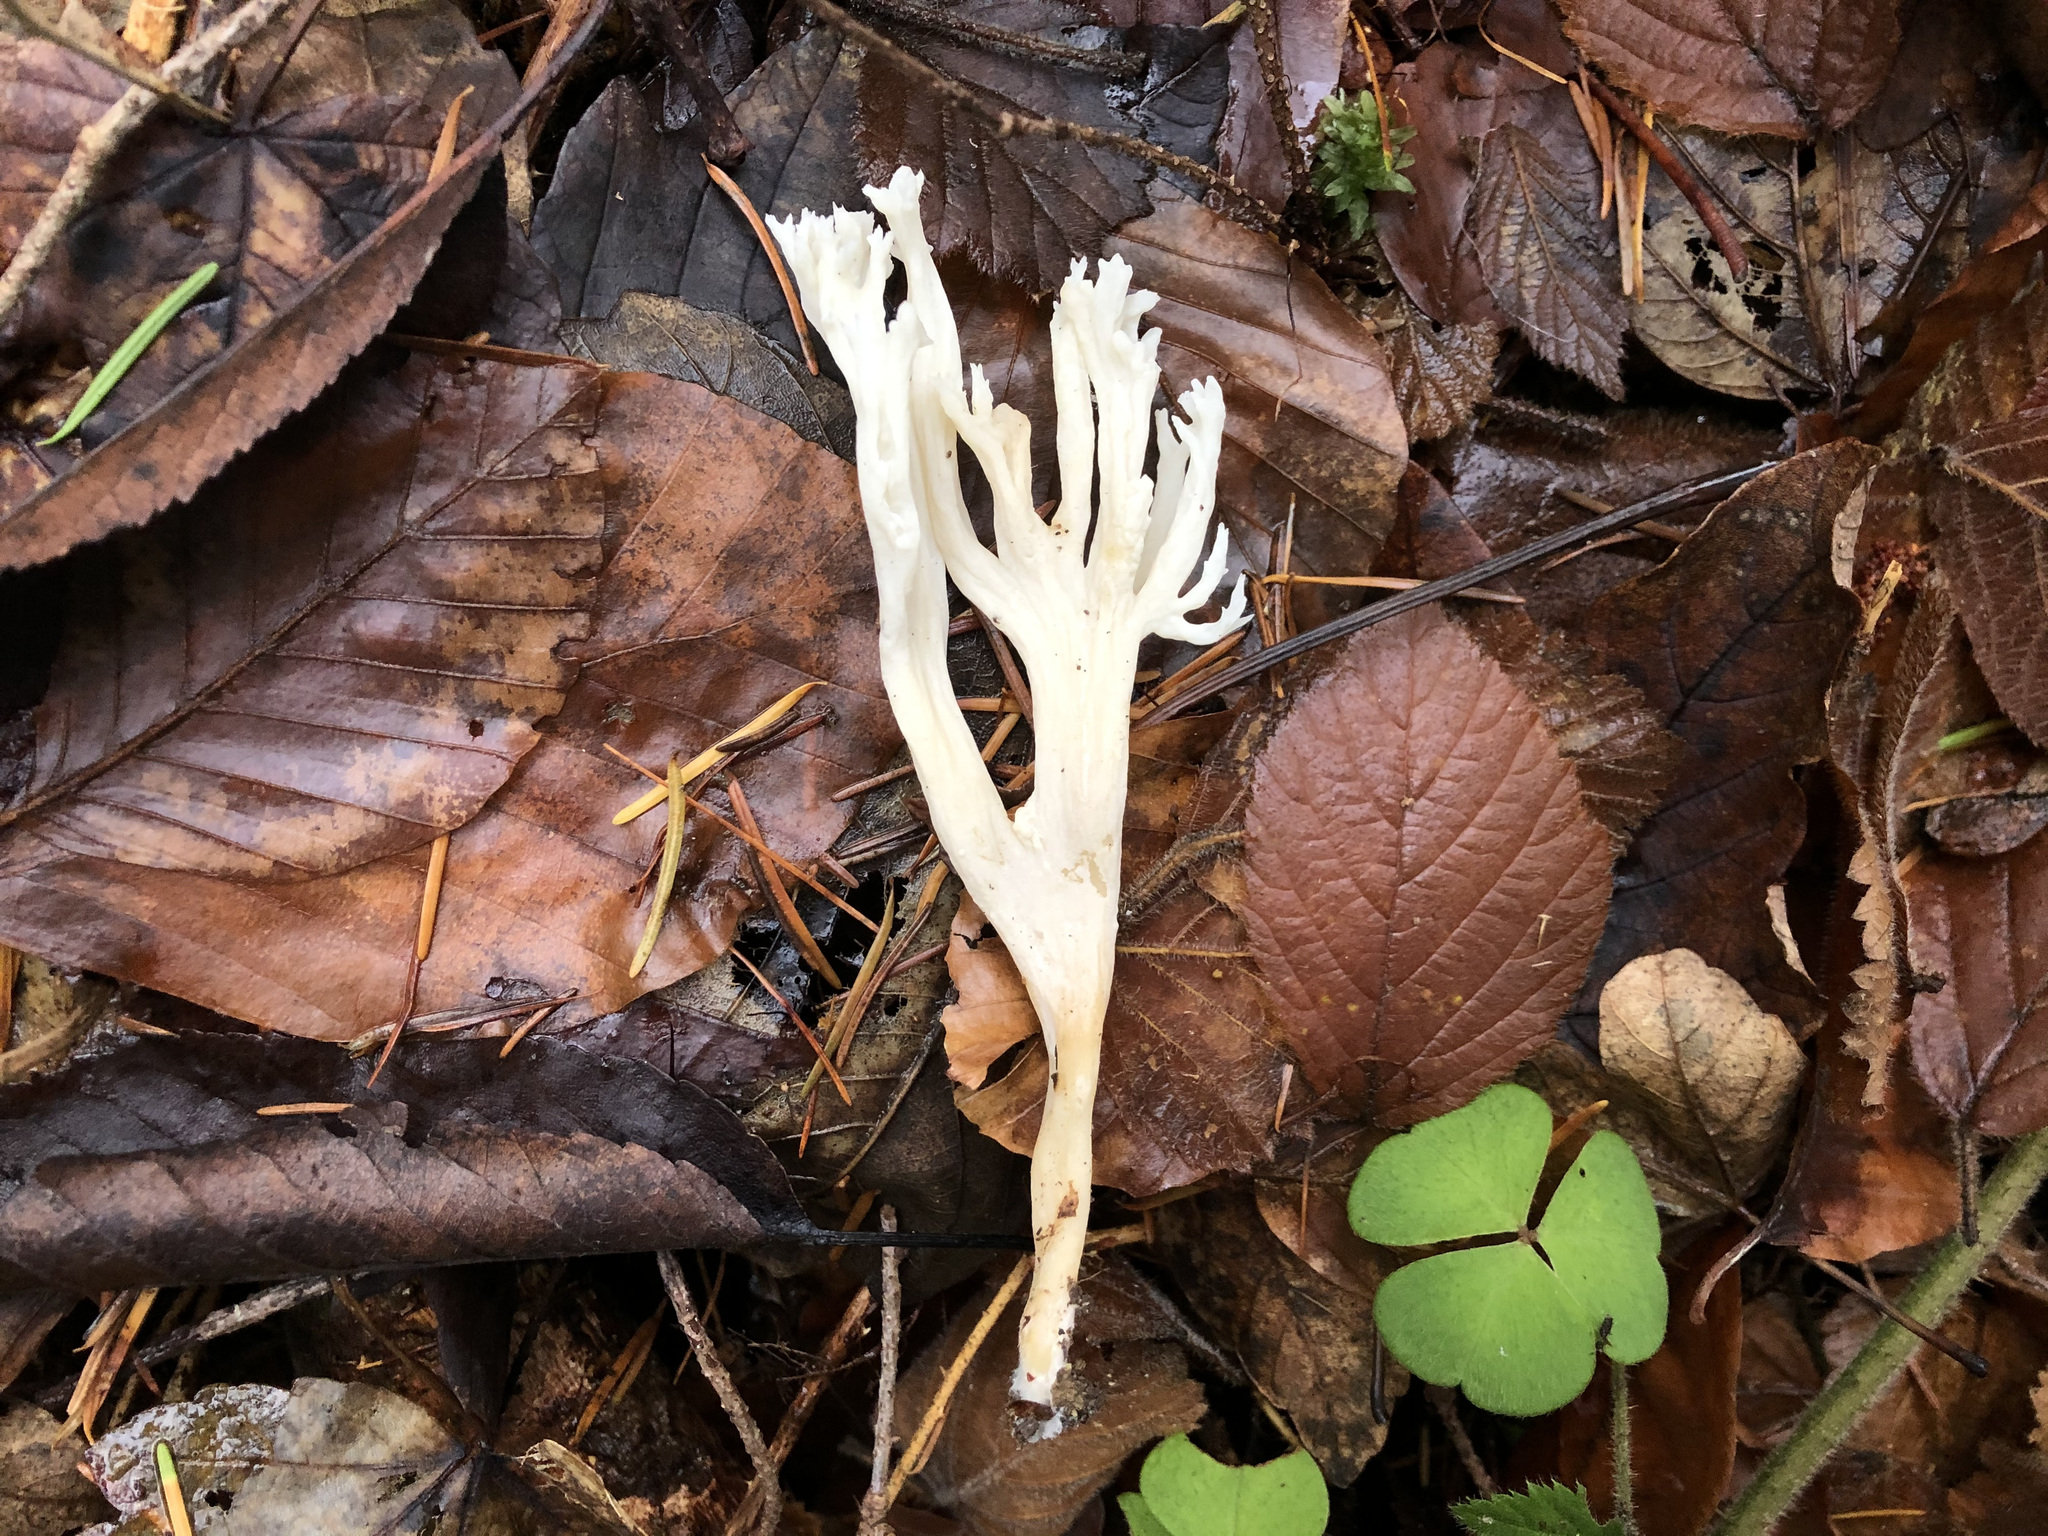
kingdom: Fungi
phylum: Basidiomycota
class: Agaricomycetes
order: Cantharellales
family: Hydnaceae
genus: Clavulina
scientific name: Clavulina rugosa
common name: Wrinkled club
